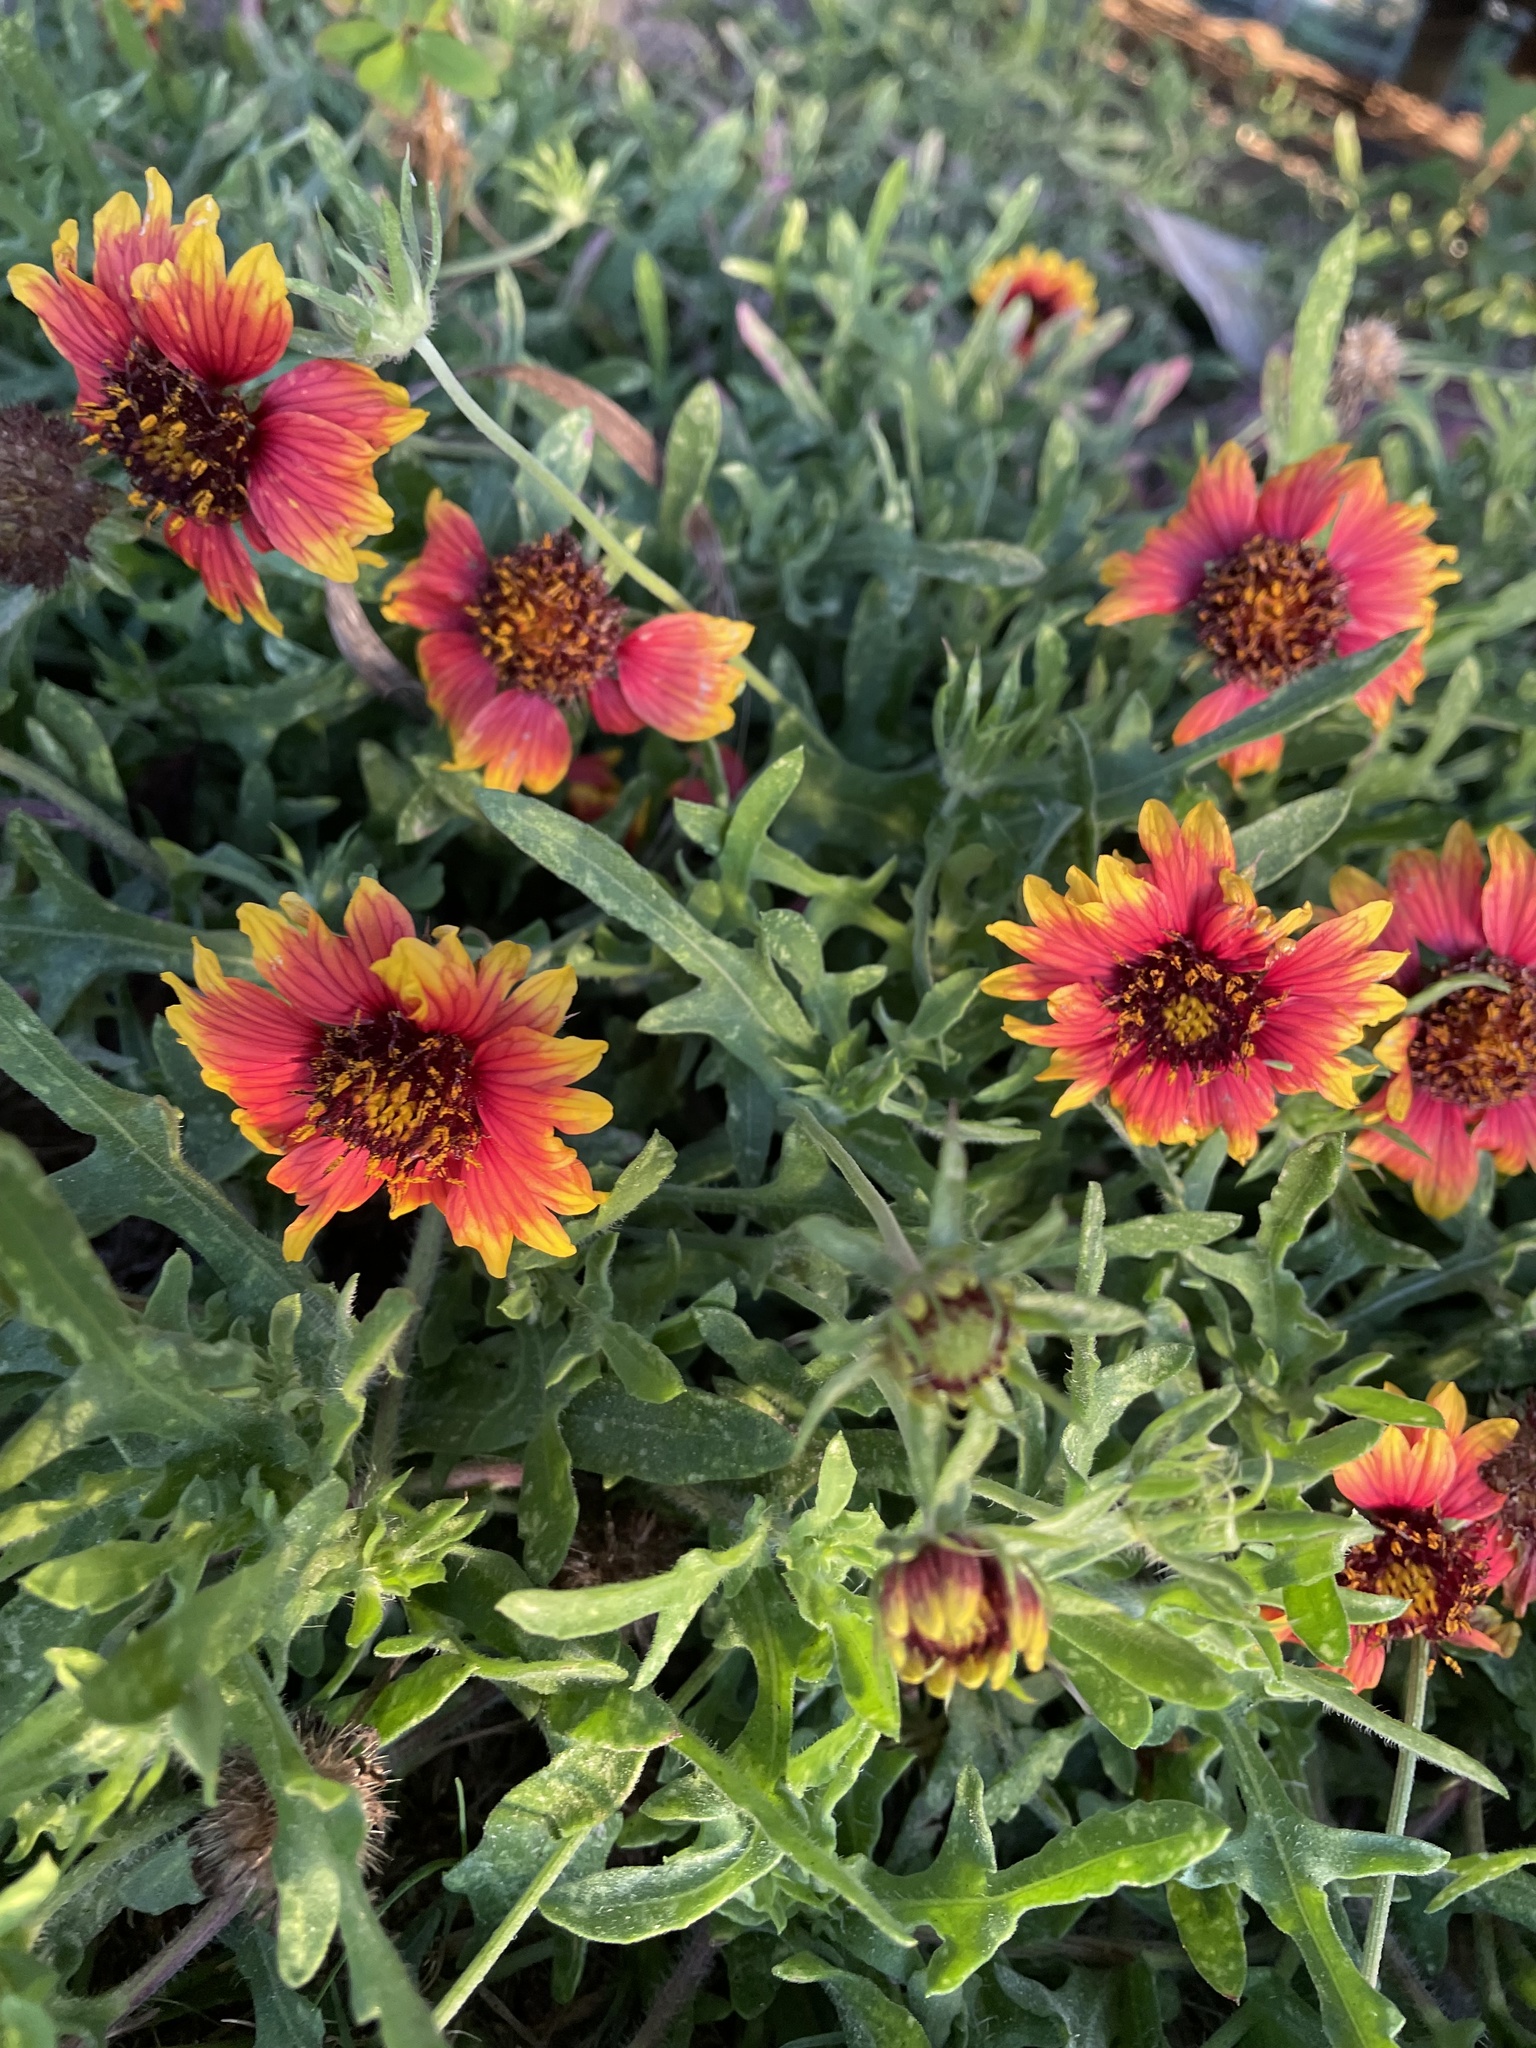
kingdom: Plantae
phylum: Tracheophyta
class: Magnoliopsida
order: Asterales
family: Asteraceae
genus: Gaillardia
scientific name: Gaillardia pulchella
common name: Firewheel
